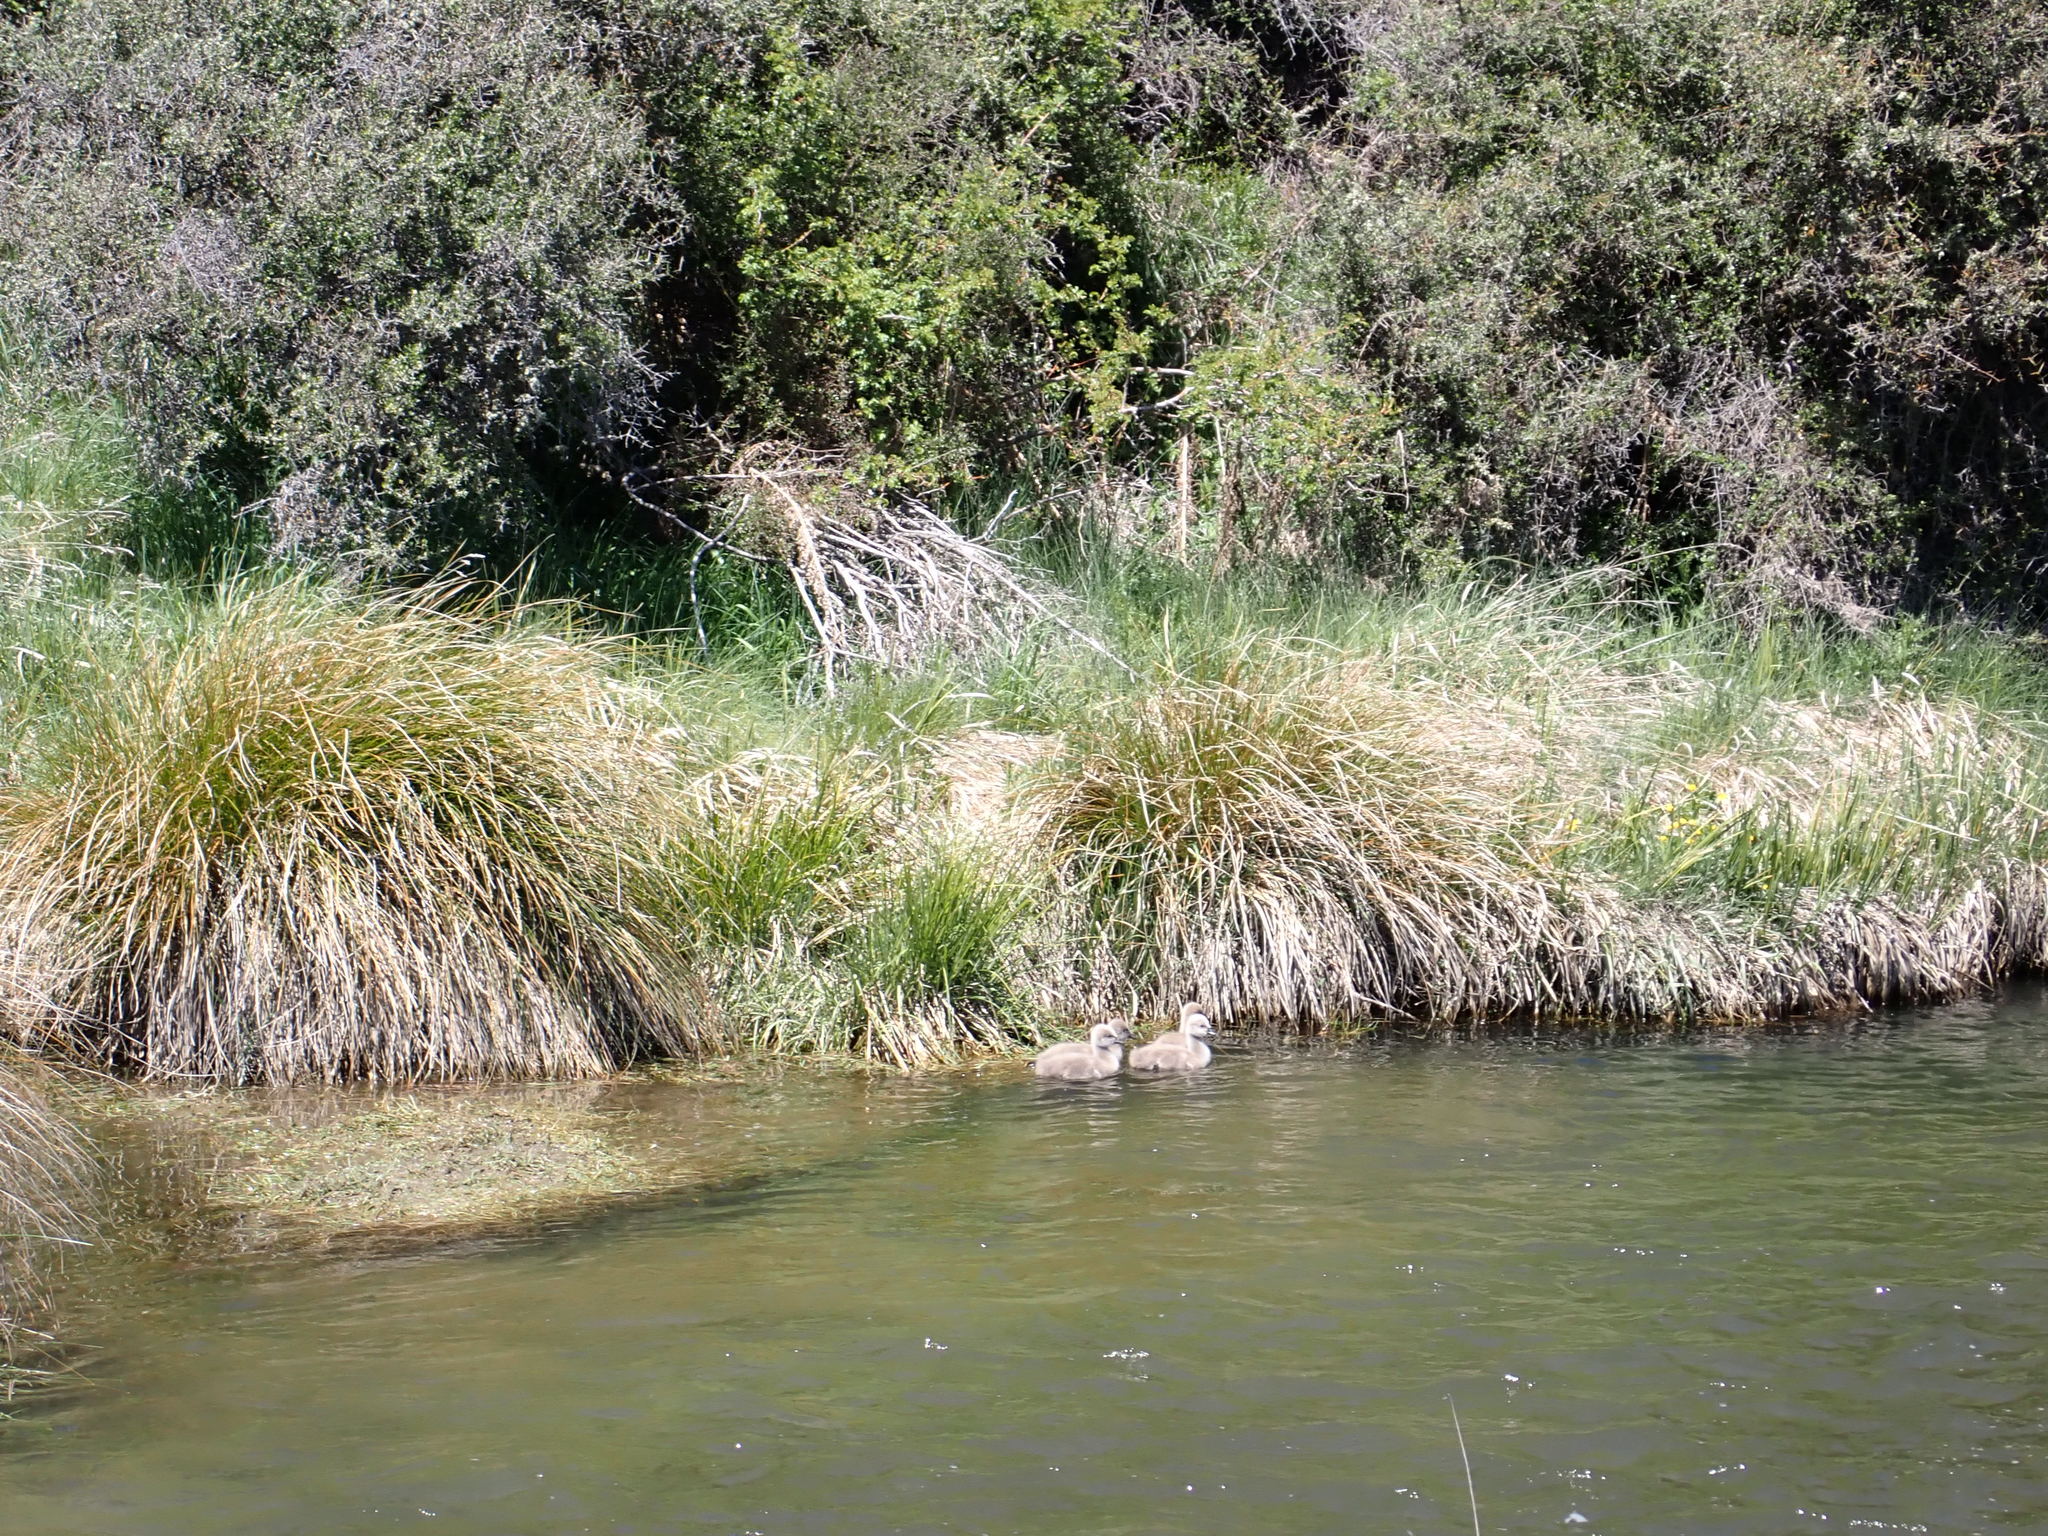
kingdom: Animalia
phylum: Chordata
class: Aves
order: Anseriformes
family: Anatidae
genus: Cygnus
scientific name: Cygnus atratus
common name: Black swan
